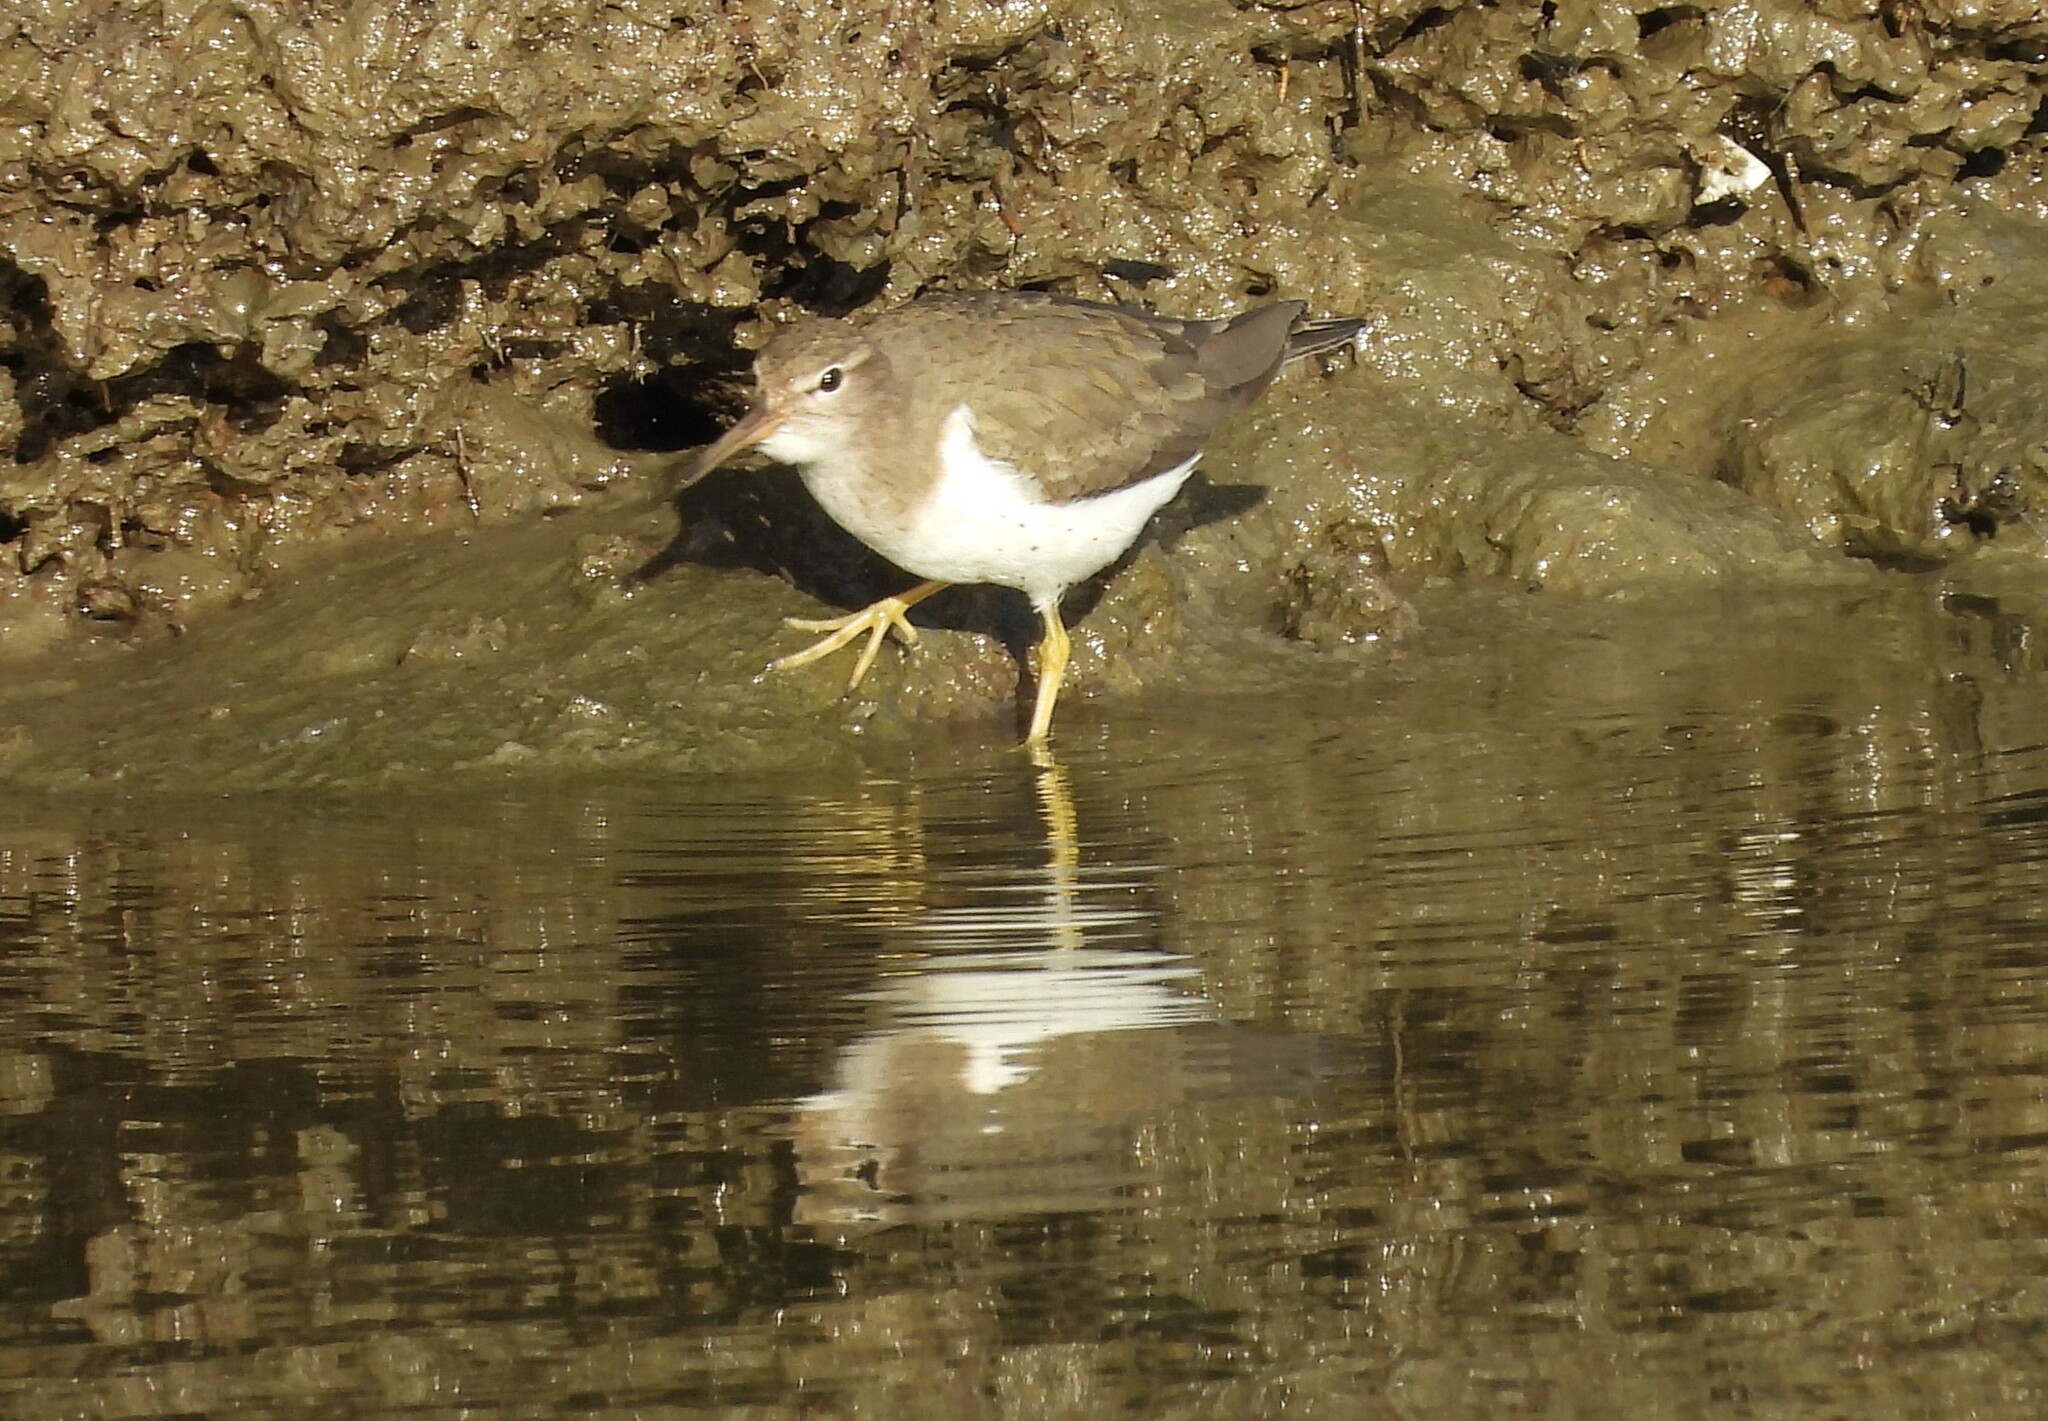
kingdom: Animalia
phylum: Chordata
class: Aves
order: Charadriiformes
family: Scolopacidae
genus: Actitis
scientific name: Actitis macularius
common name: Spotted sandpiper
